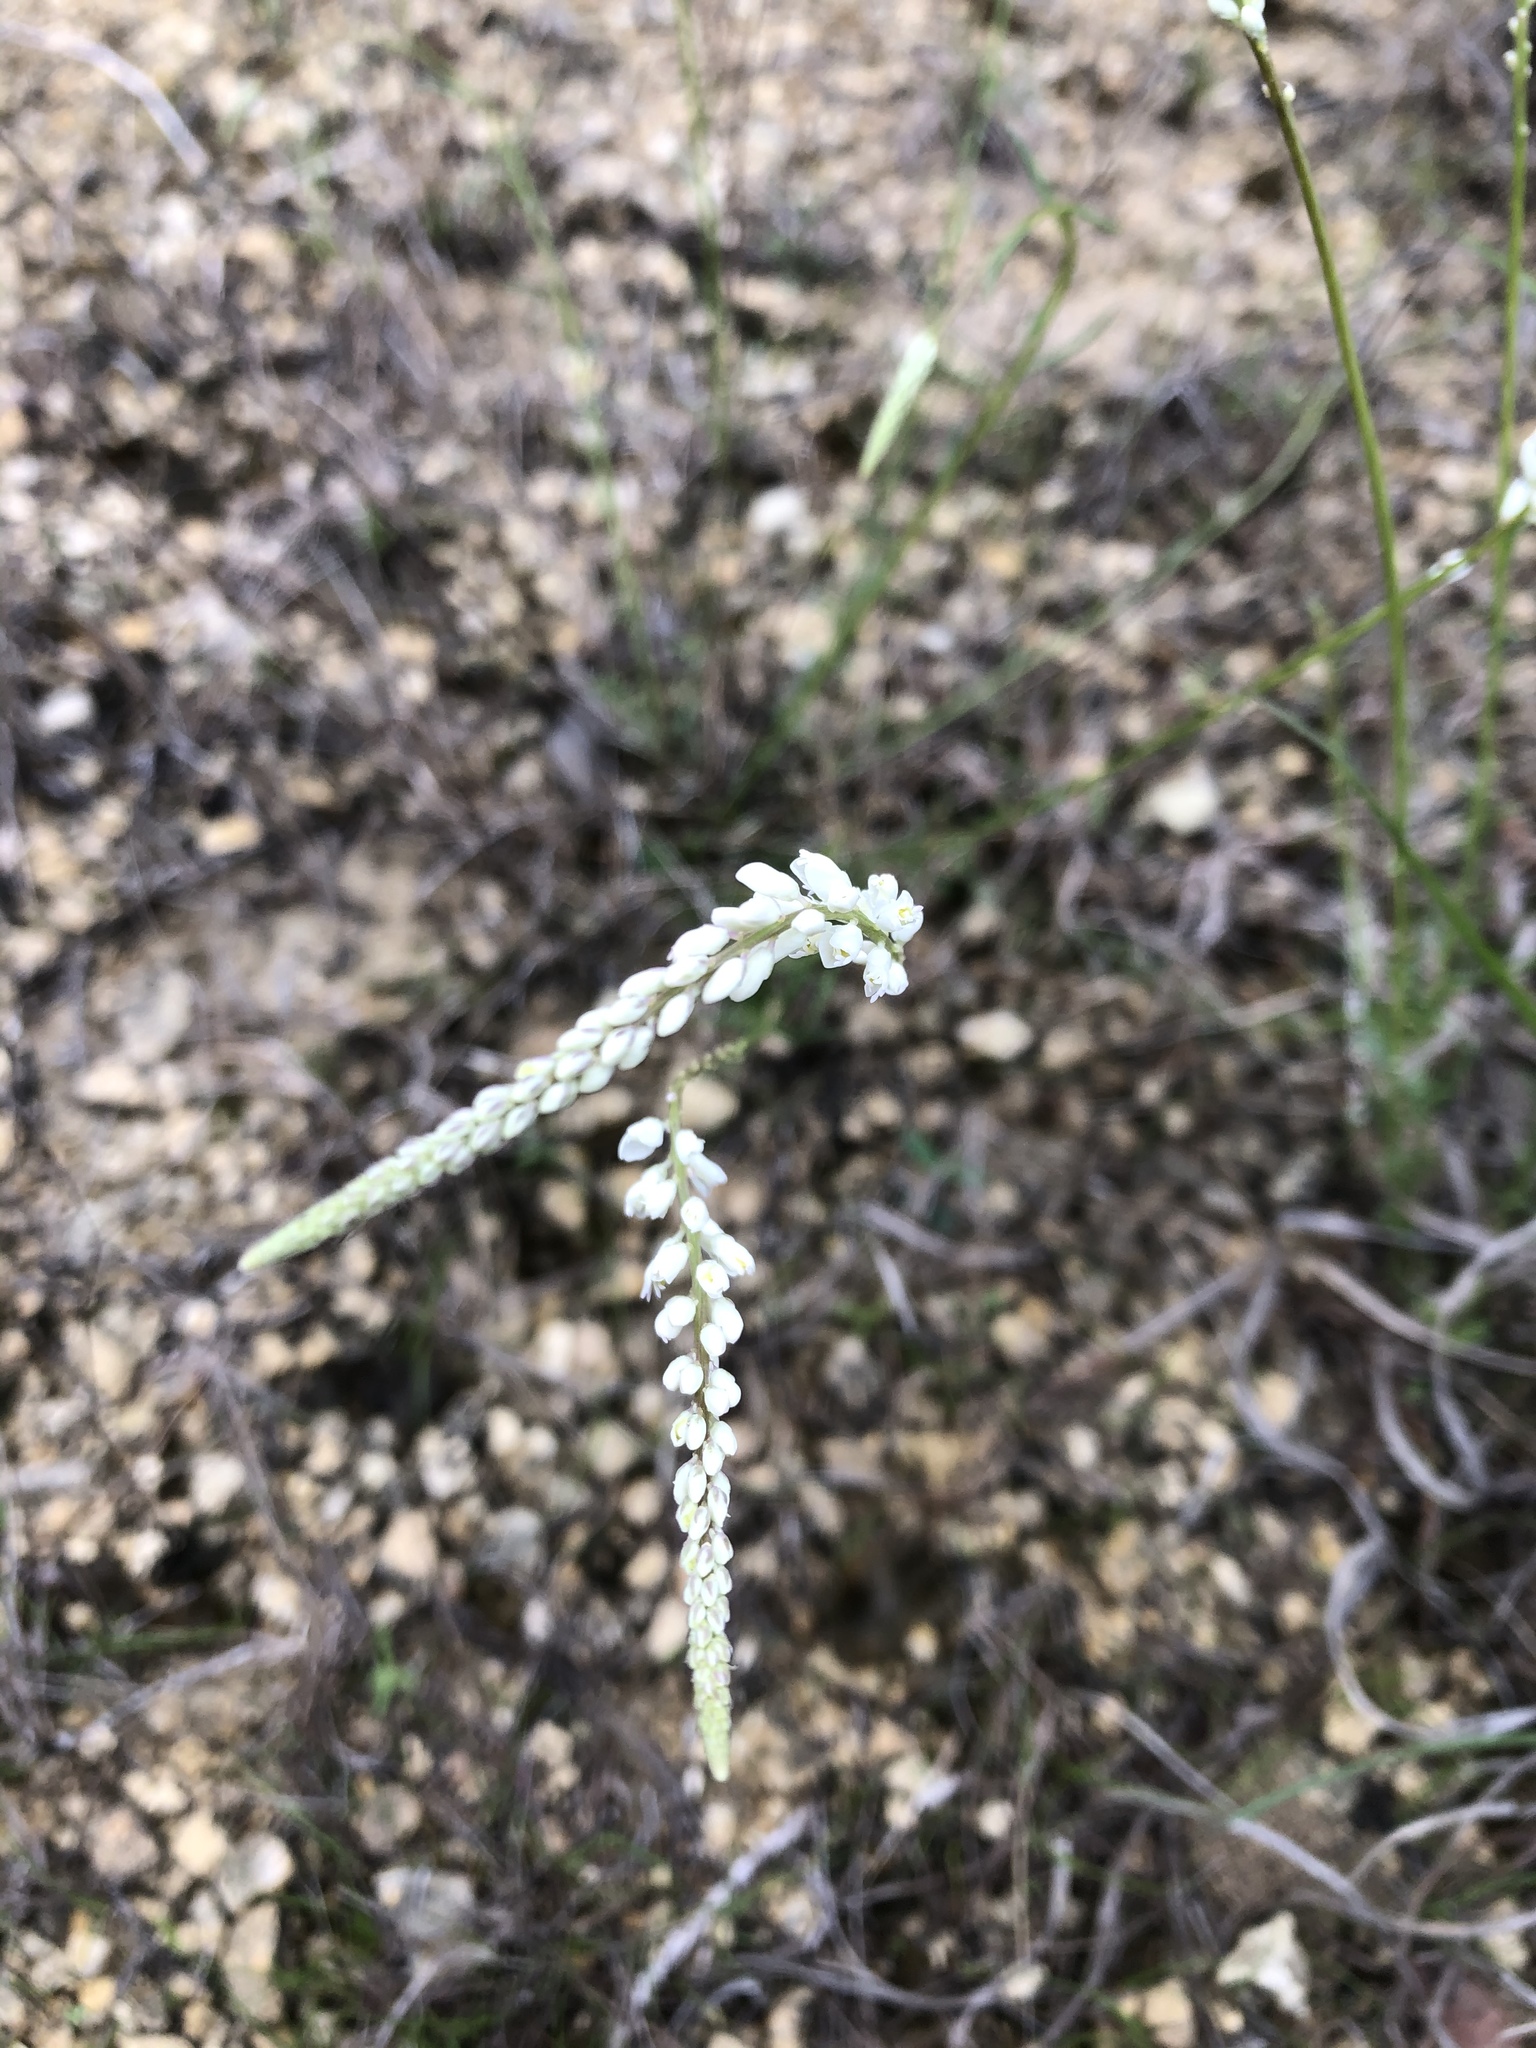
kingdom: Plantae
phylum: Tracheophyta
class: Magnoliopsida
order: Fabales
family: Polygalaceae
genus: Polygala
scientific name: Polygala alba
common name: White milkwort
